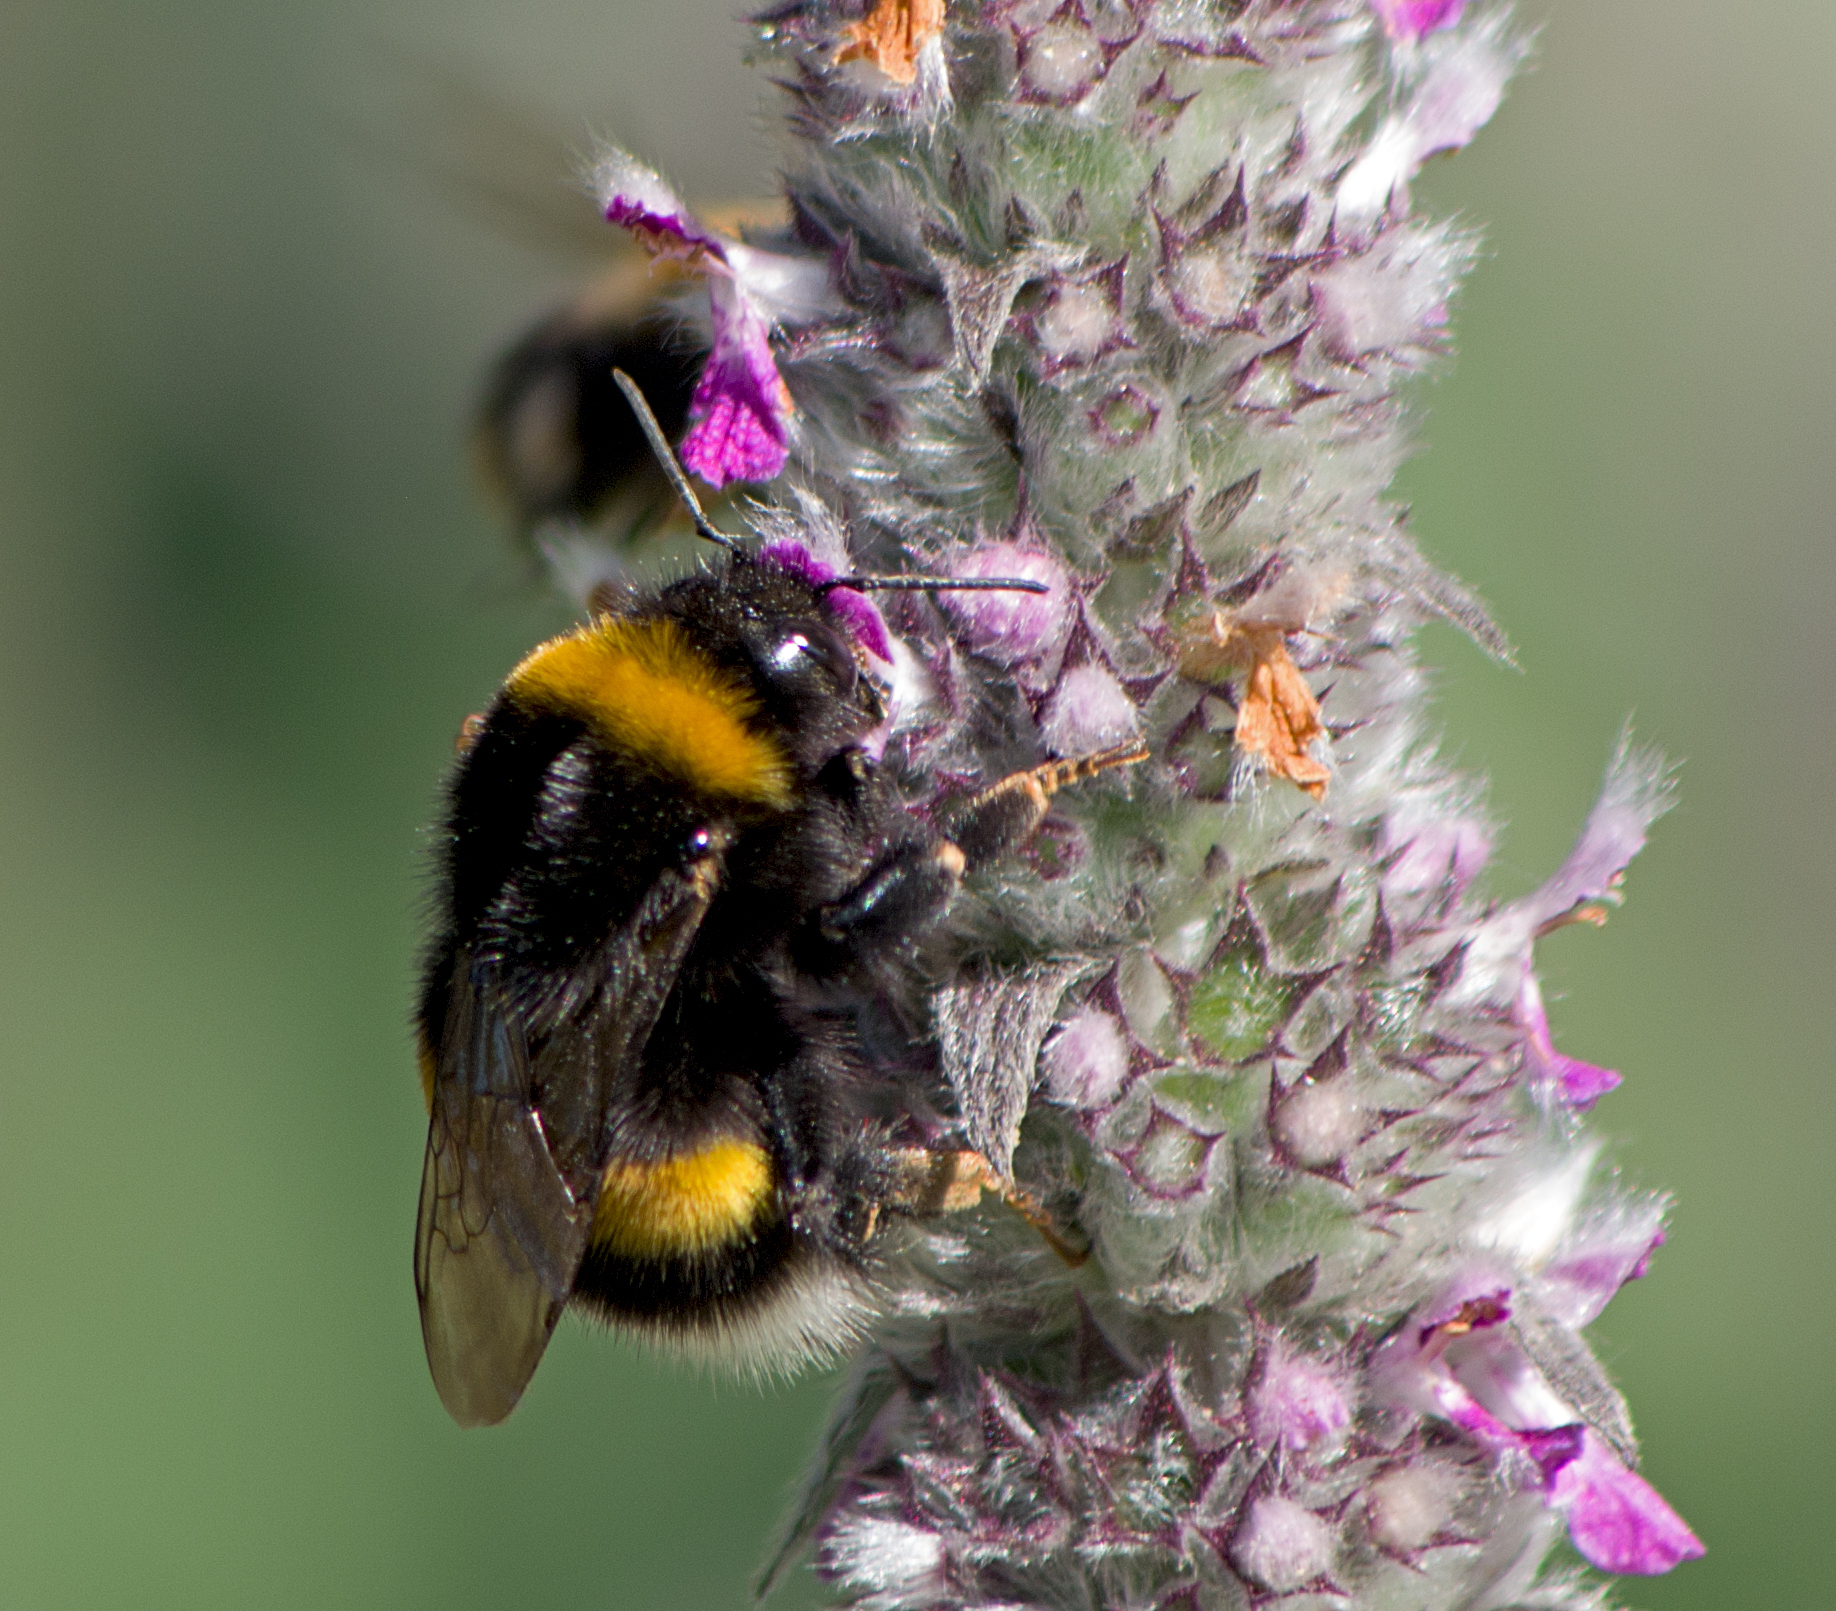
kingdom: Animalia
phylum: Arthropoda
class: Insecta
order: Hymenoptera
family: Apidae
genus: Bombus
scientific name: Bombus terrestris
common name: Buff-tailed bumblebee
